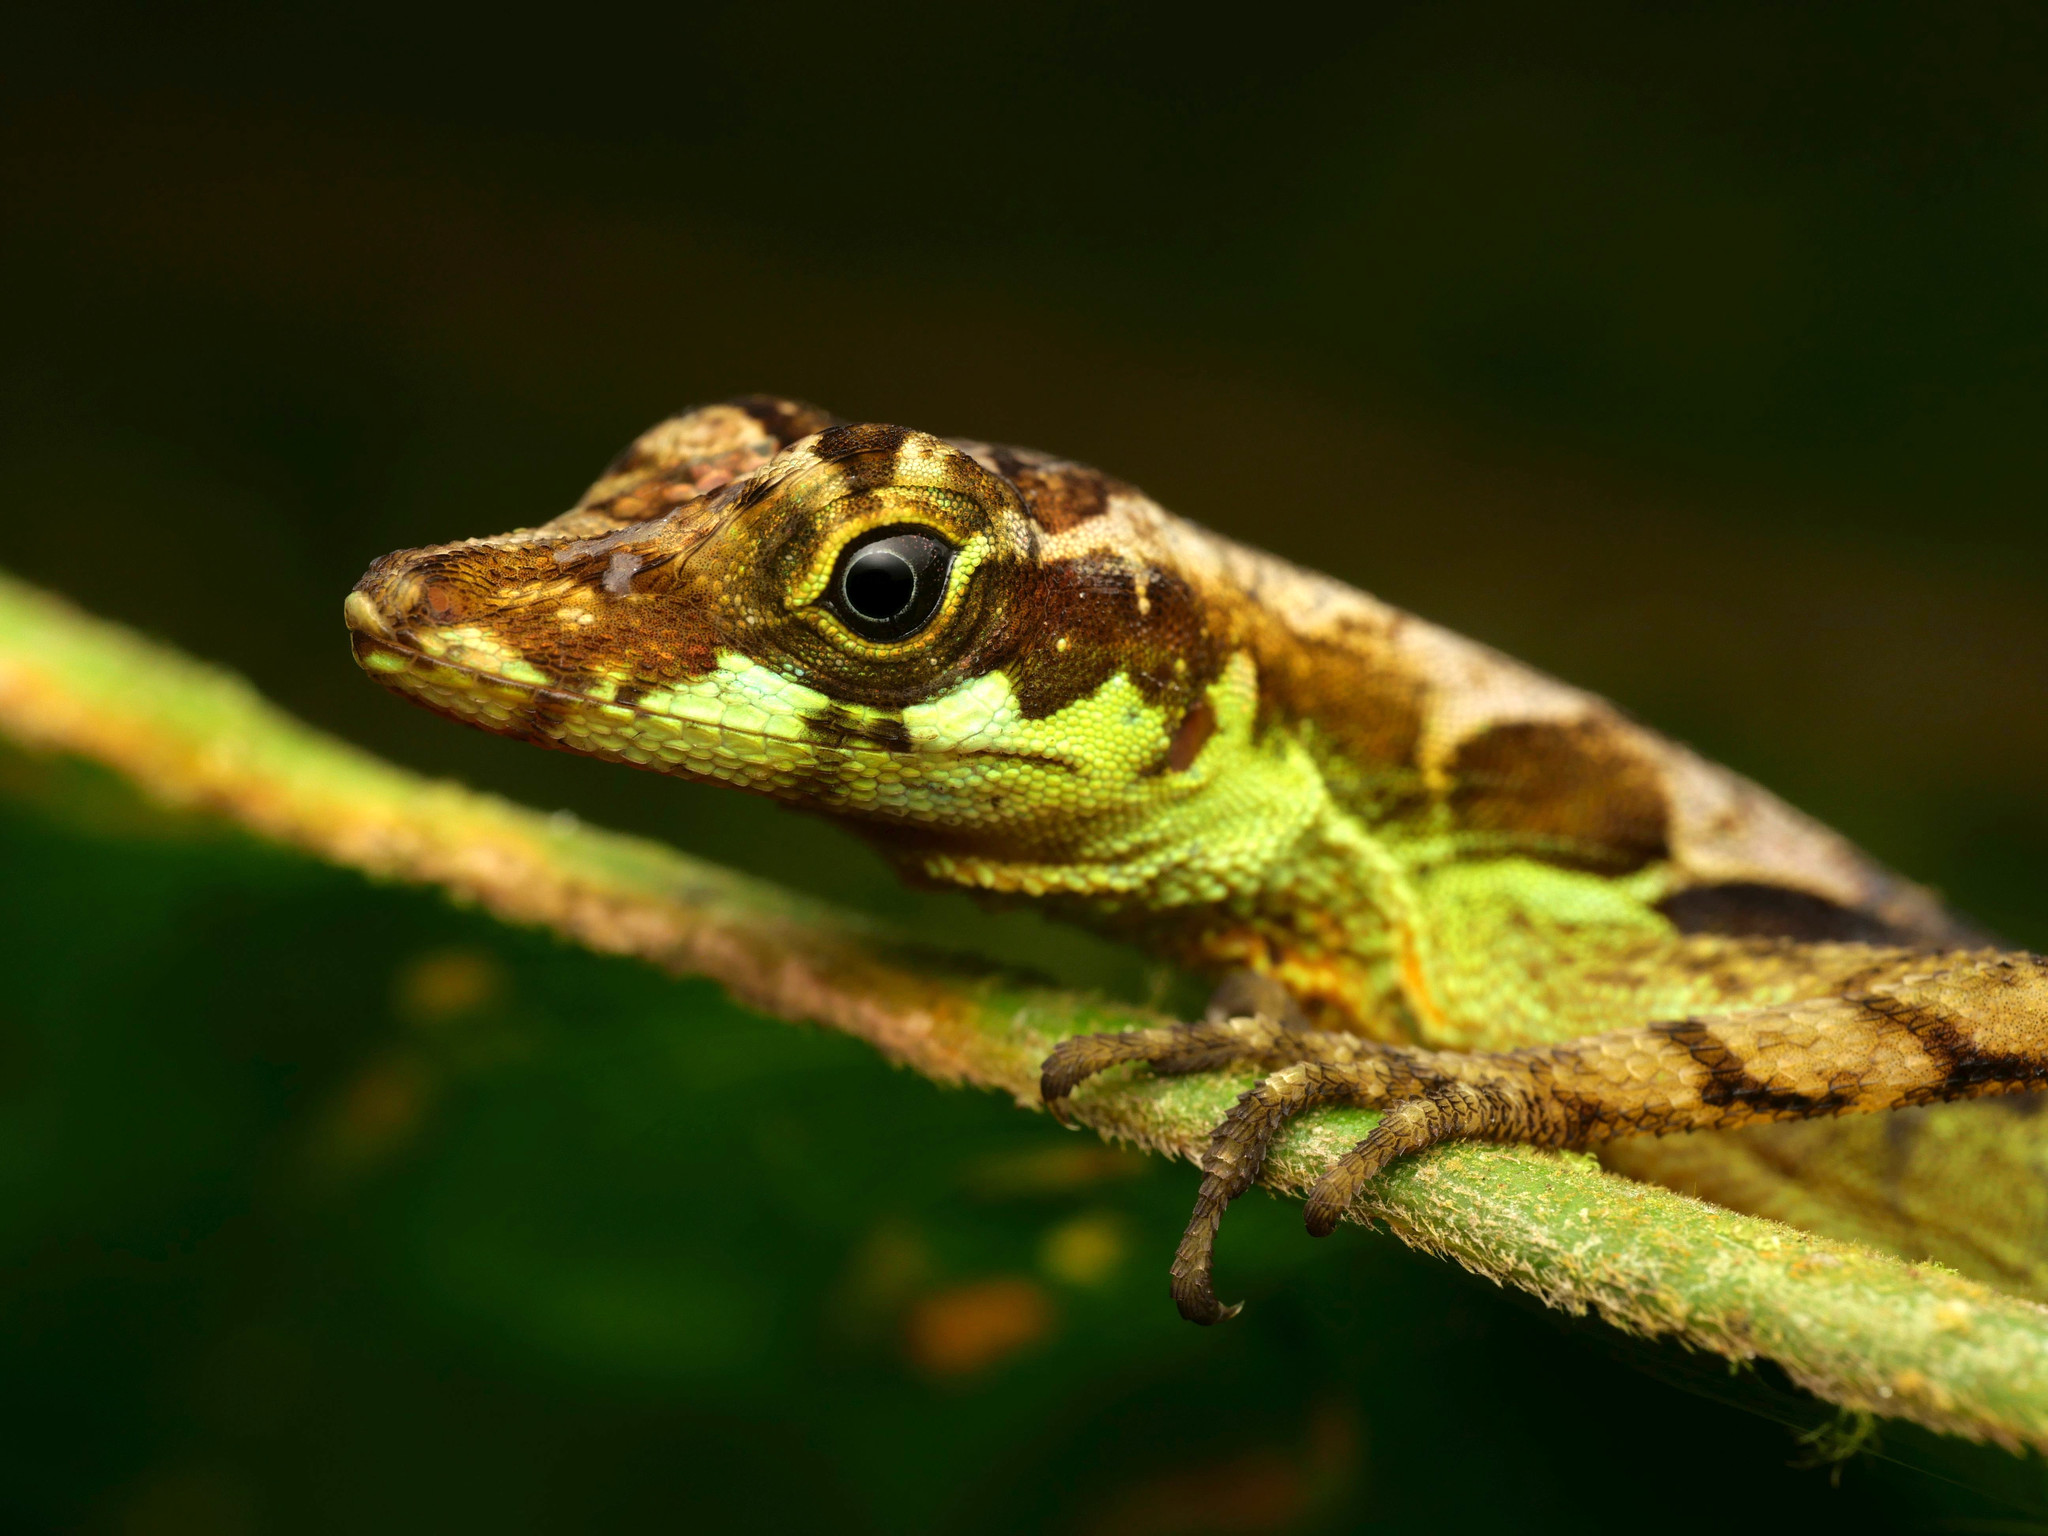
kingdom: Animalia
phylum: Chordata
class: Squamata
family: Dactyloidae
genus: Anolis
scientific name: Anolis gracilipes
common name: Charm anole
